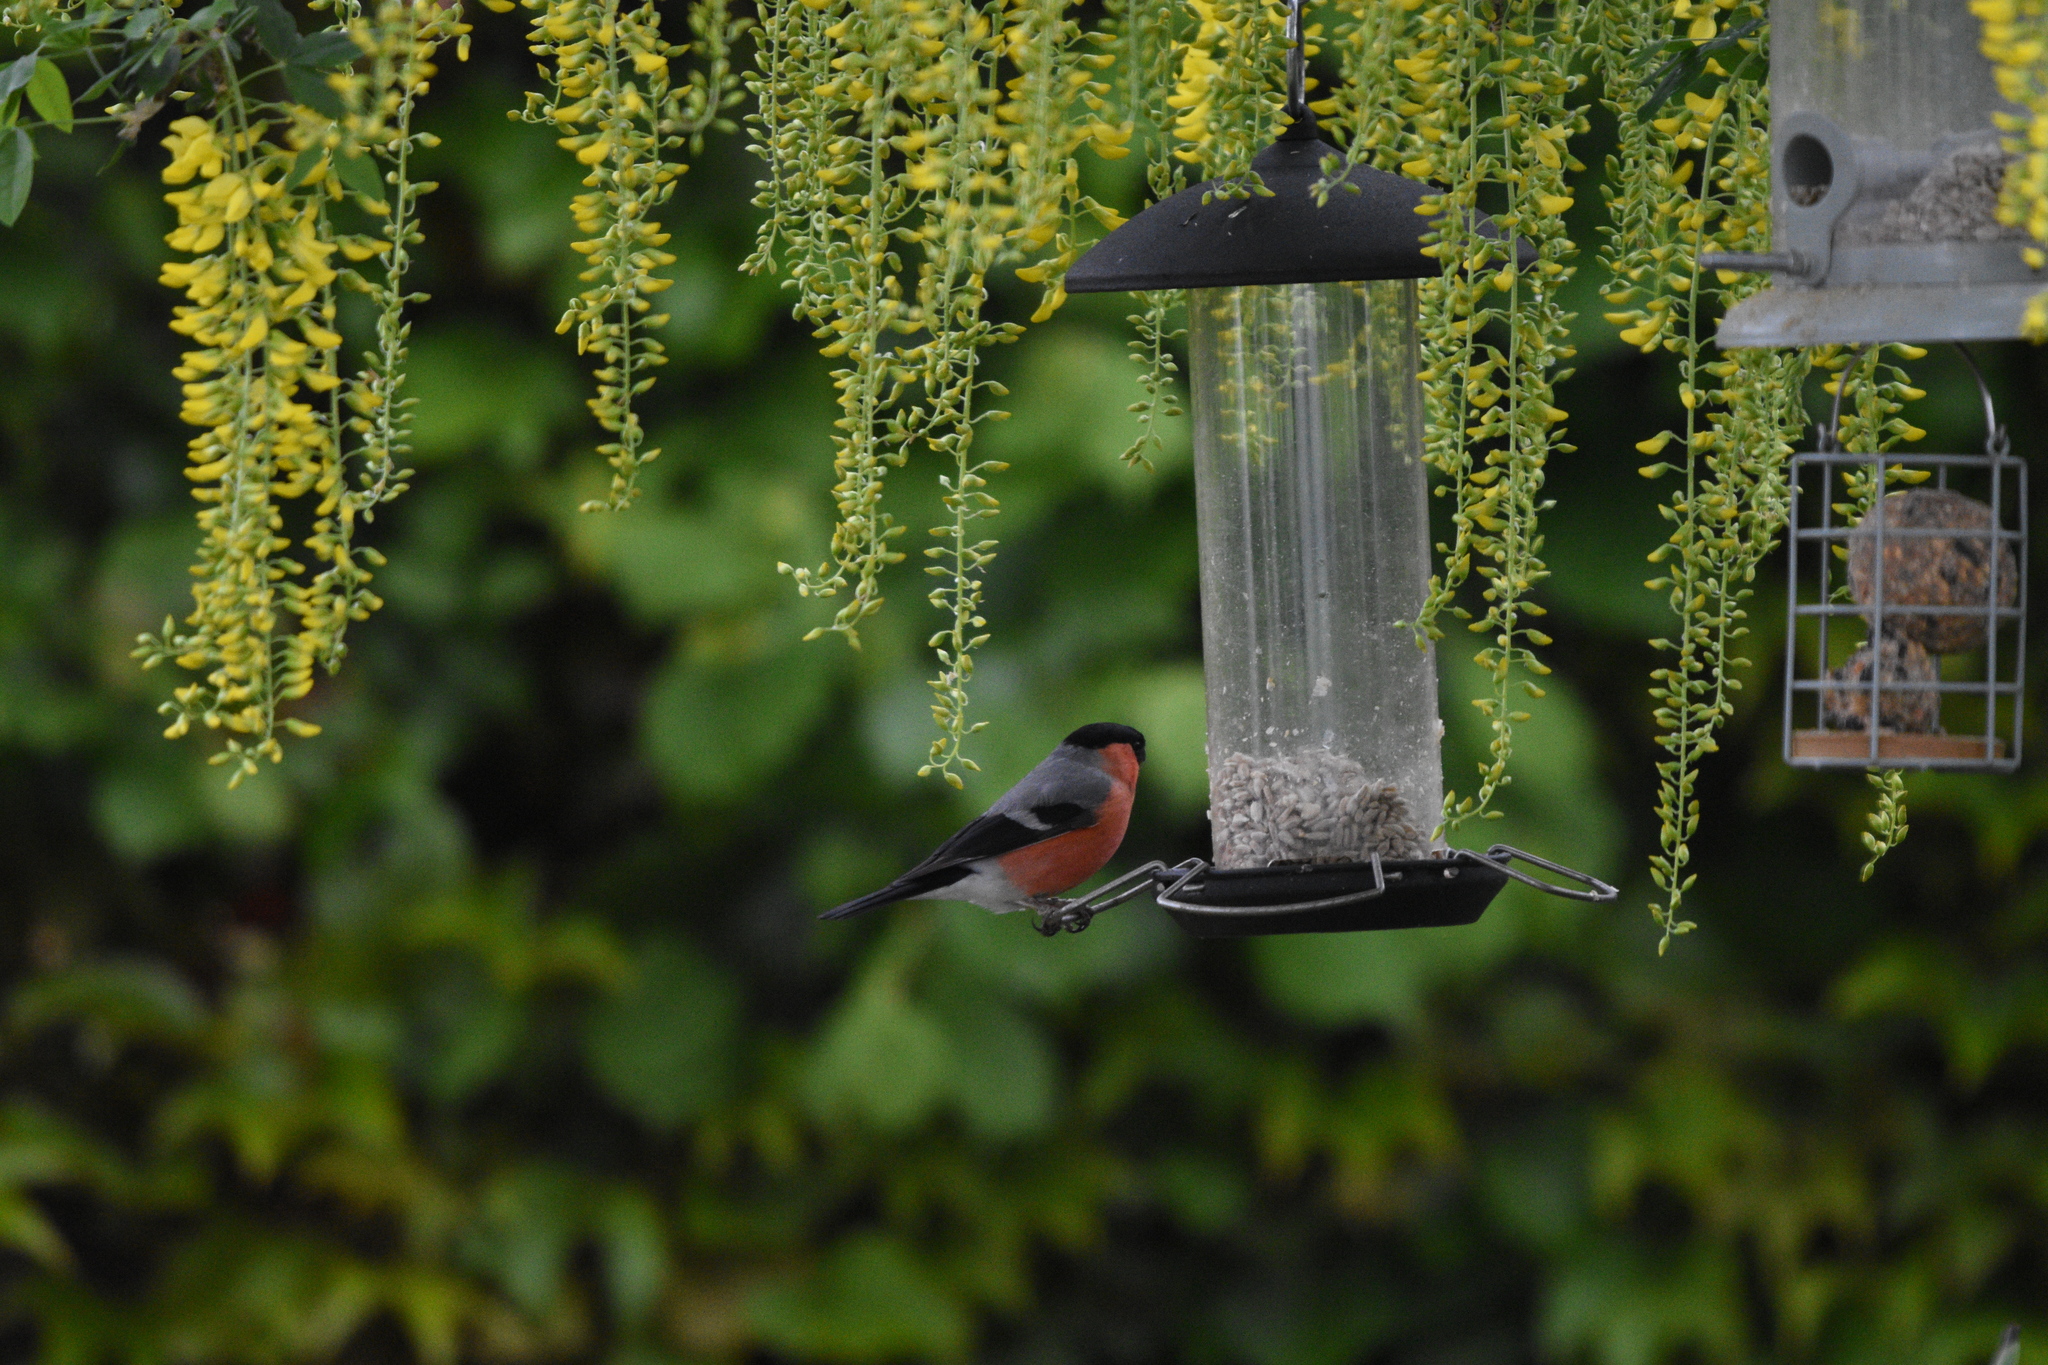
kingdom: Animalia
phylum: Chordata
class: Aves
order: Passeriformes
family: Fringillidae
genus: Pyrrhula
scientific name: Pyrrhula pyrrhula
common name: Eurasian bullfinch
